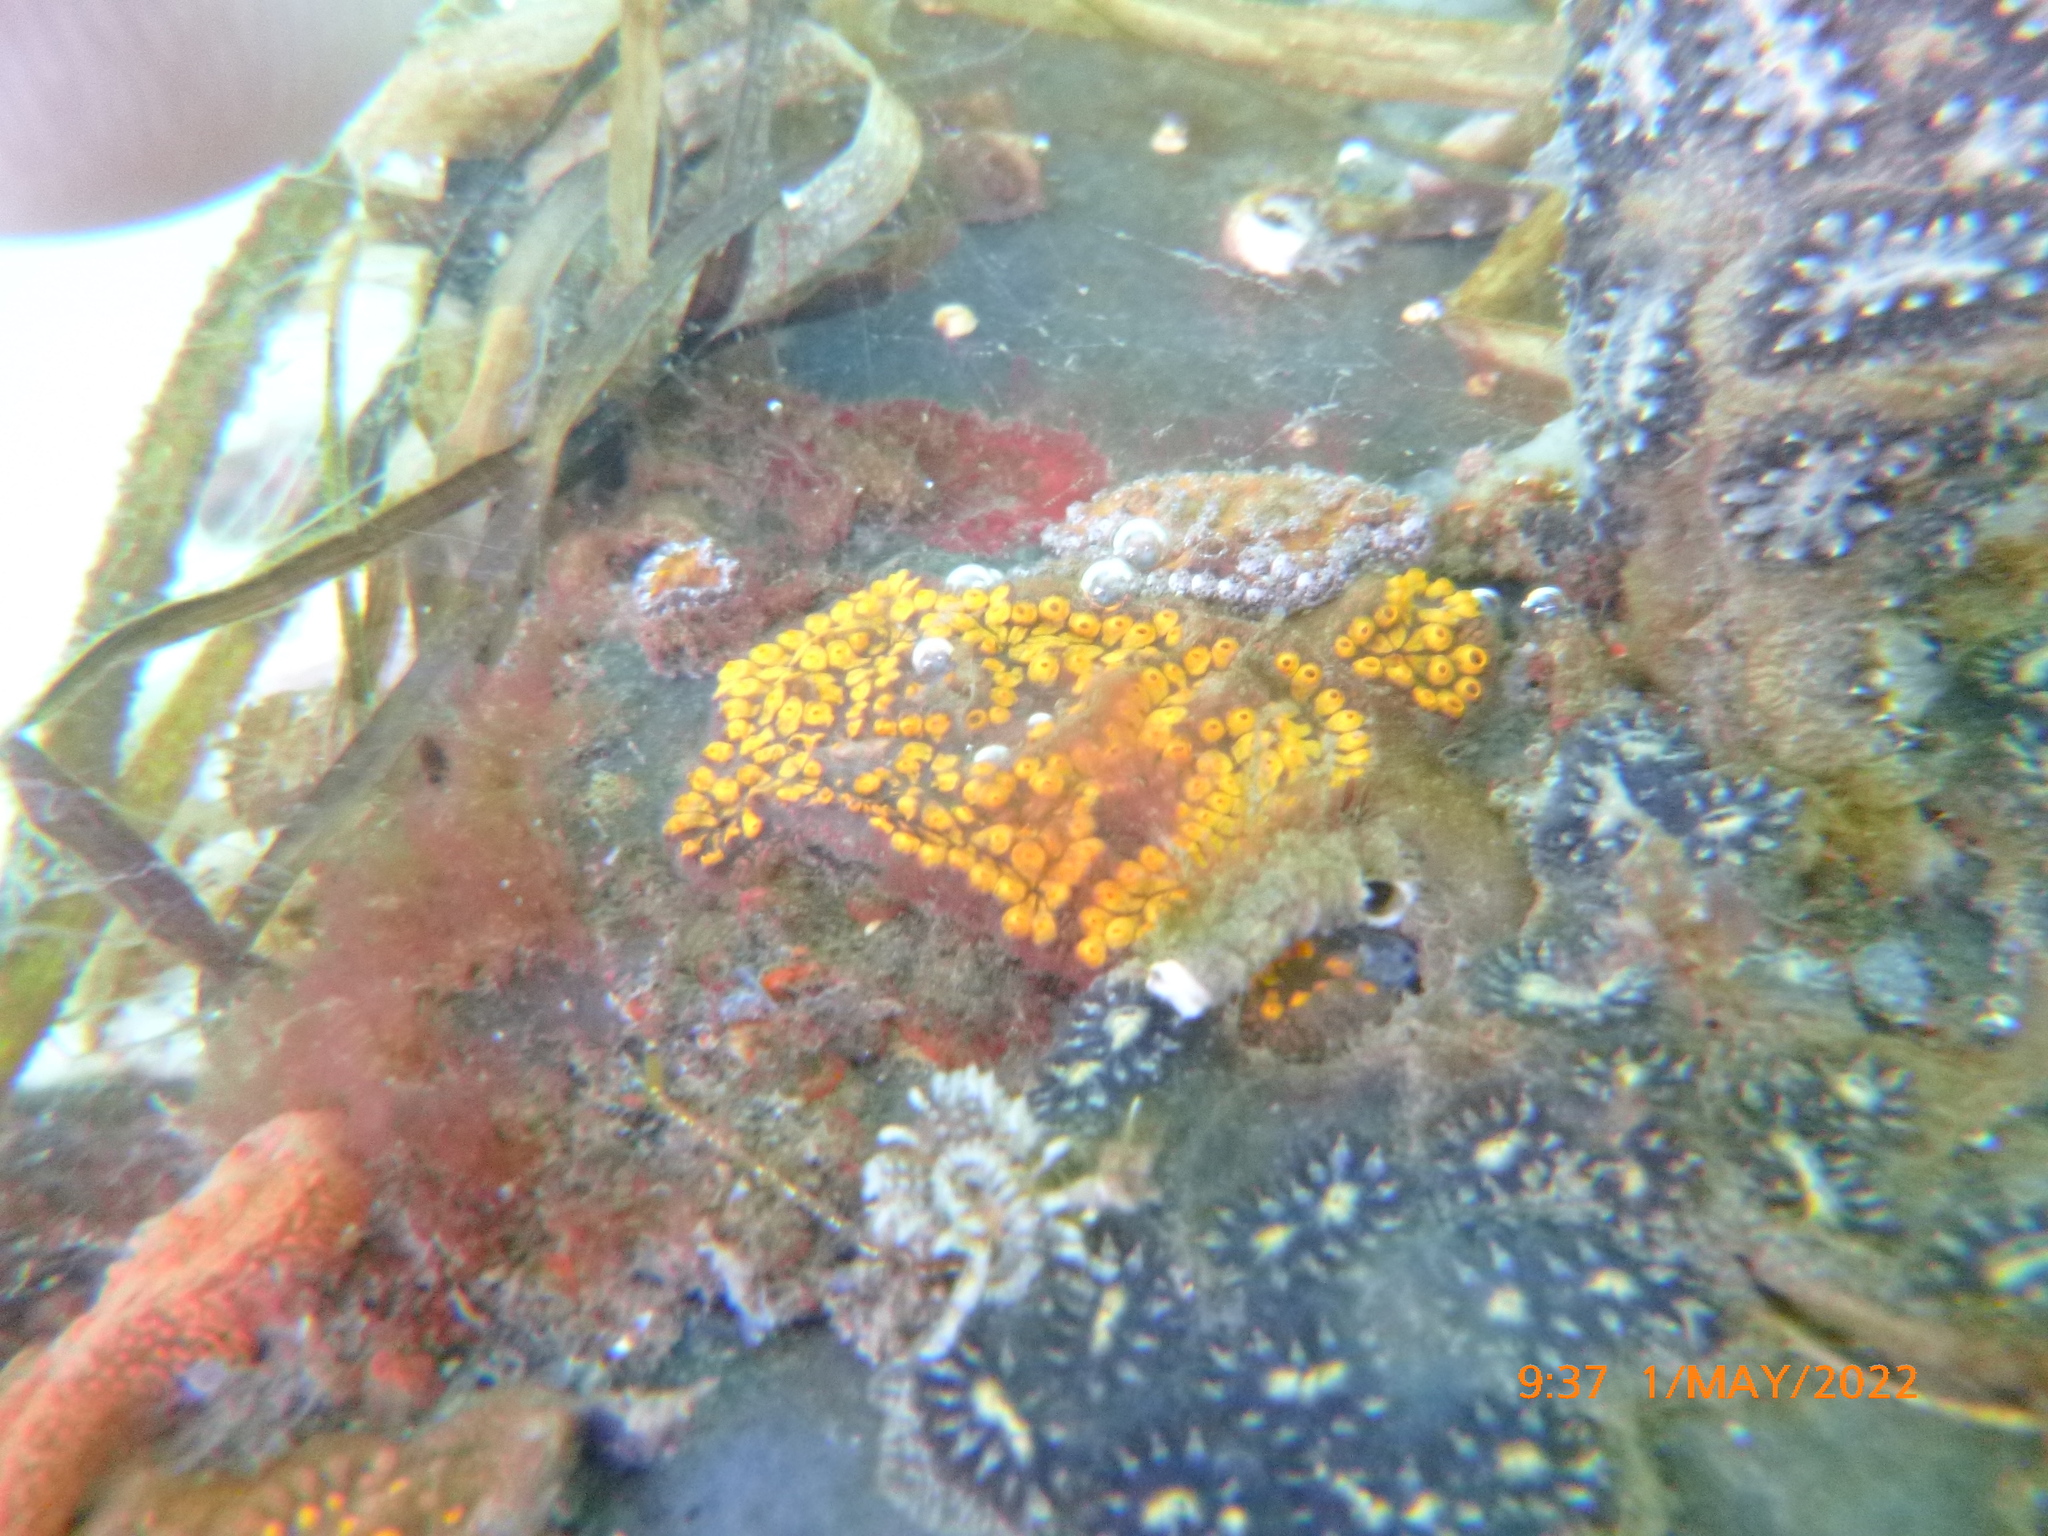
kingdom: Animalia
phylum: Chordata
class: Ascidiacea
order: Stolidobranchia
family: Styelidae
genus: Botrylloides
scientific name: Botrylloides diegensis
